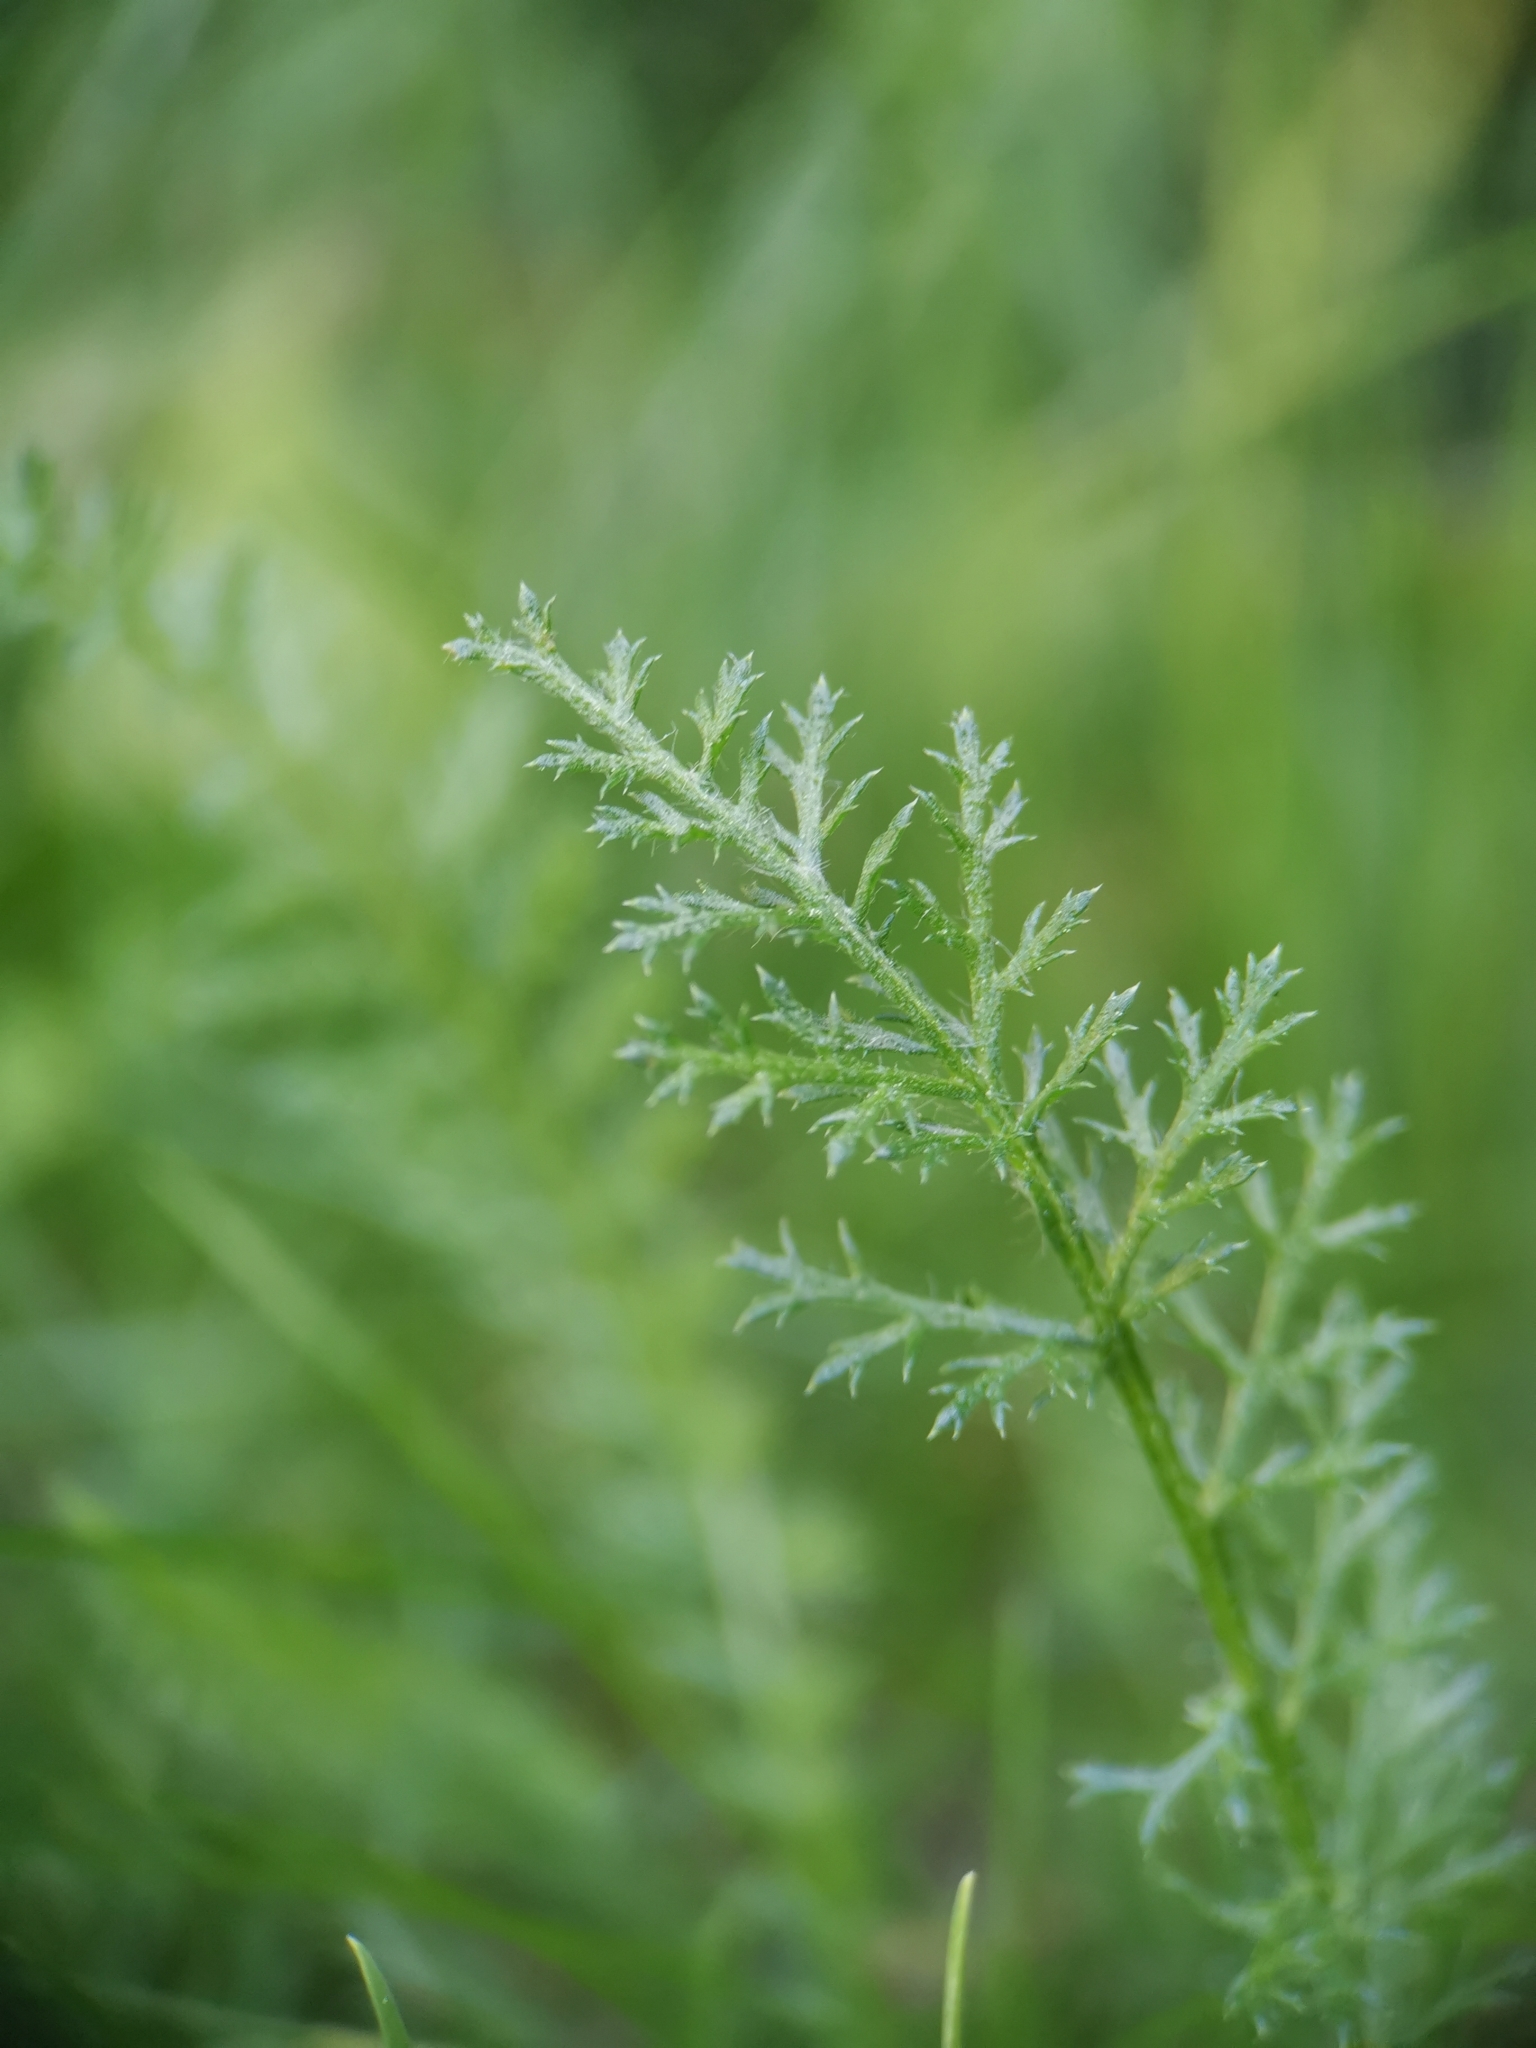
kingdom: Plantae
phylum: Tracheophyta
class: Magnoliopsida
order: Asterales
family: Asteraceae
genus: Achillea
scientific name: Achillea millefolium
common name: Yarrow
